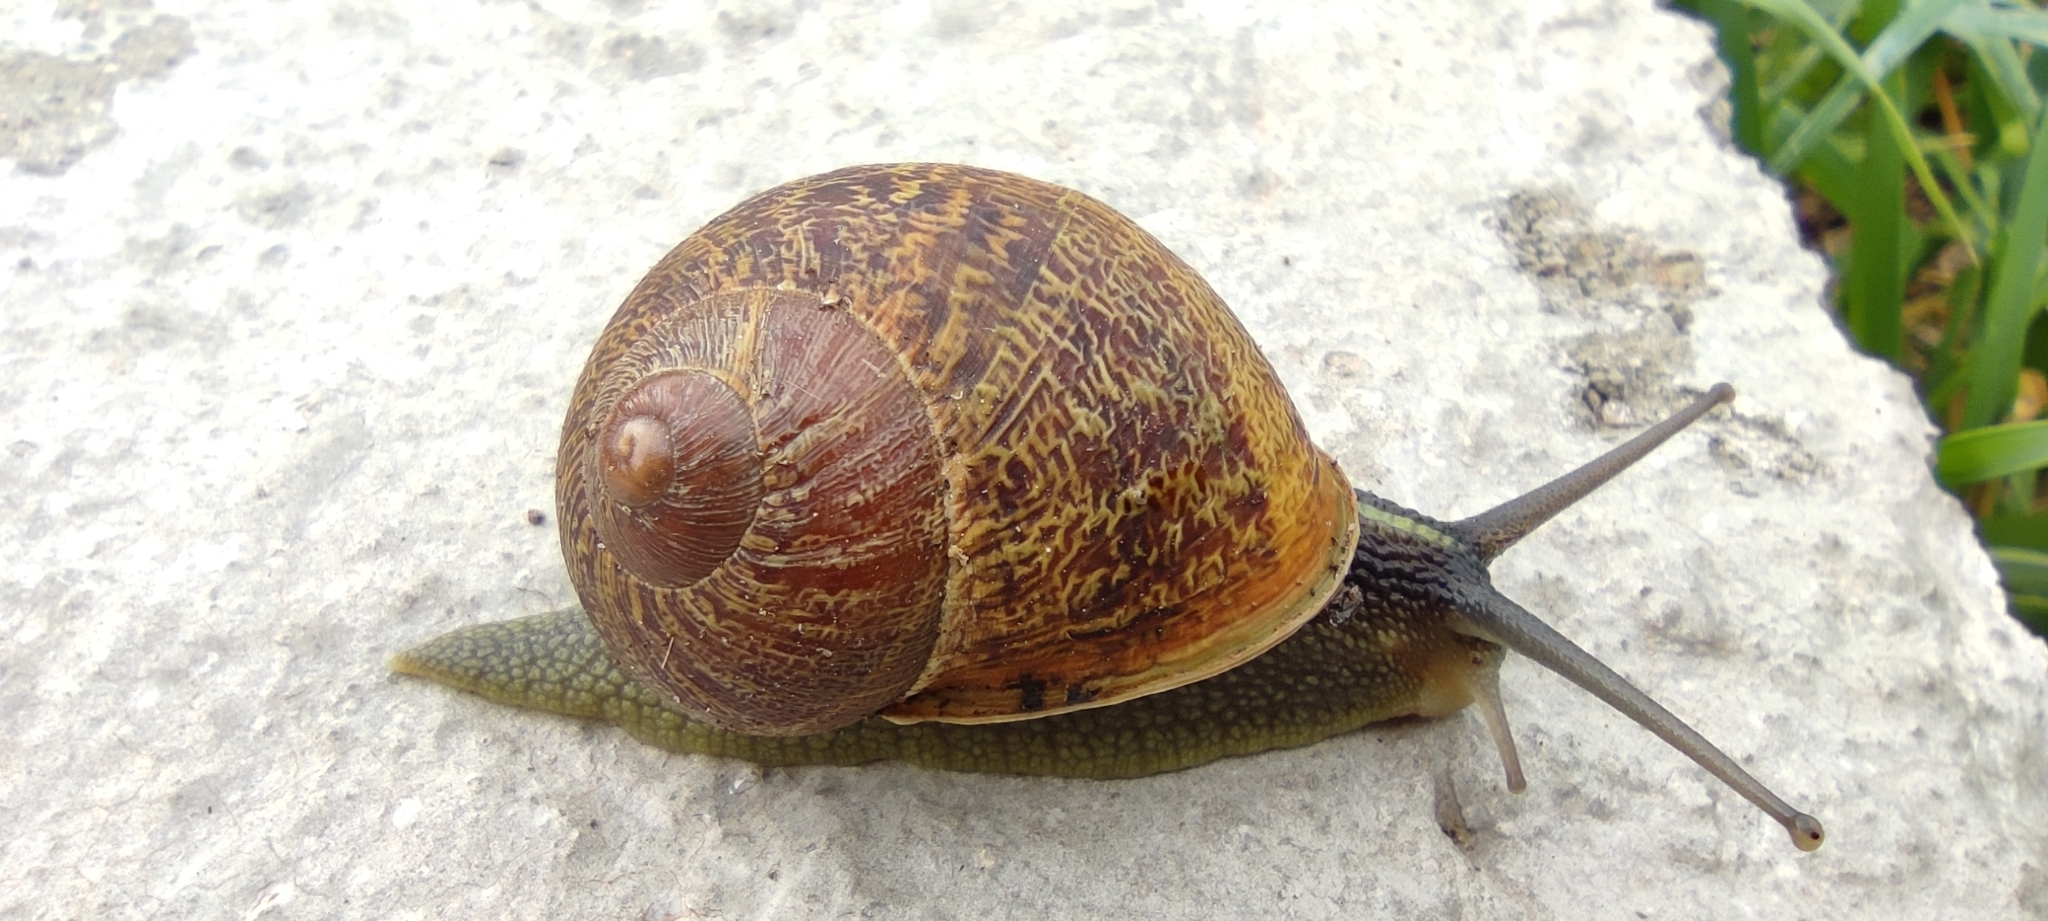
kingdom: Animalia
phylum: Mollusca
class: Gastropoda
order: Stylommatophora
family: Helicidae
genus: Cornu
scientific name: Cornu aspersum
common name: Brown garden snail
